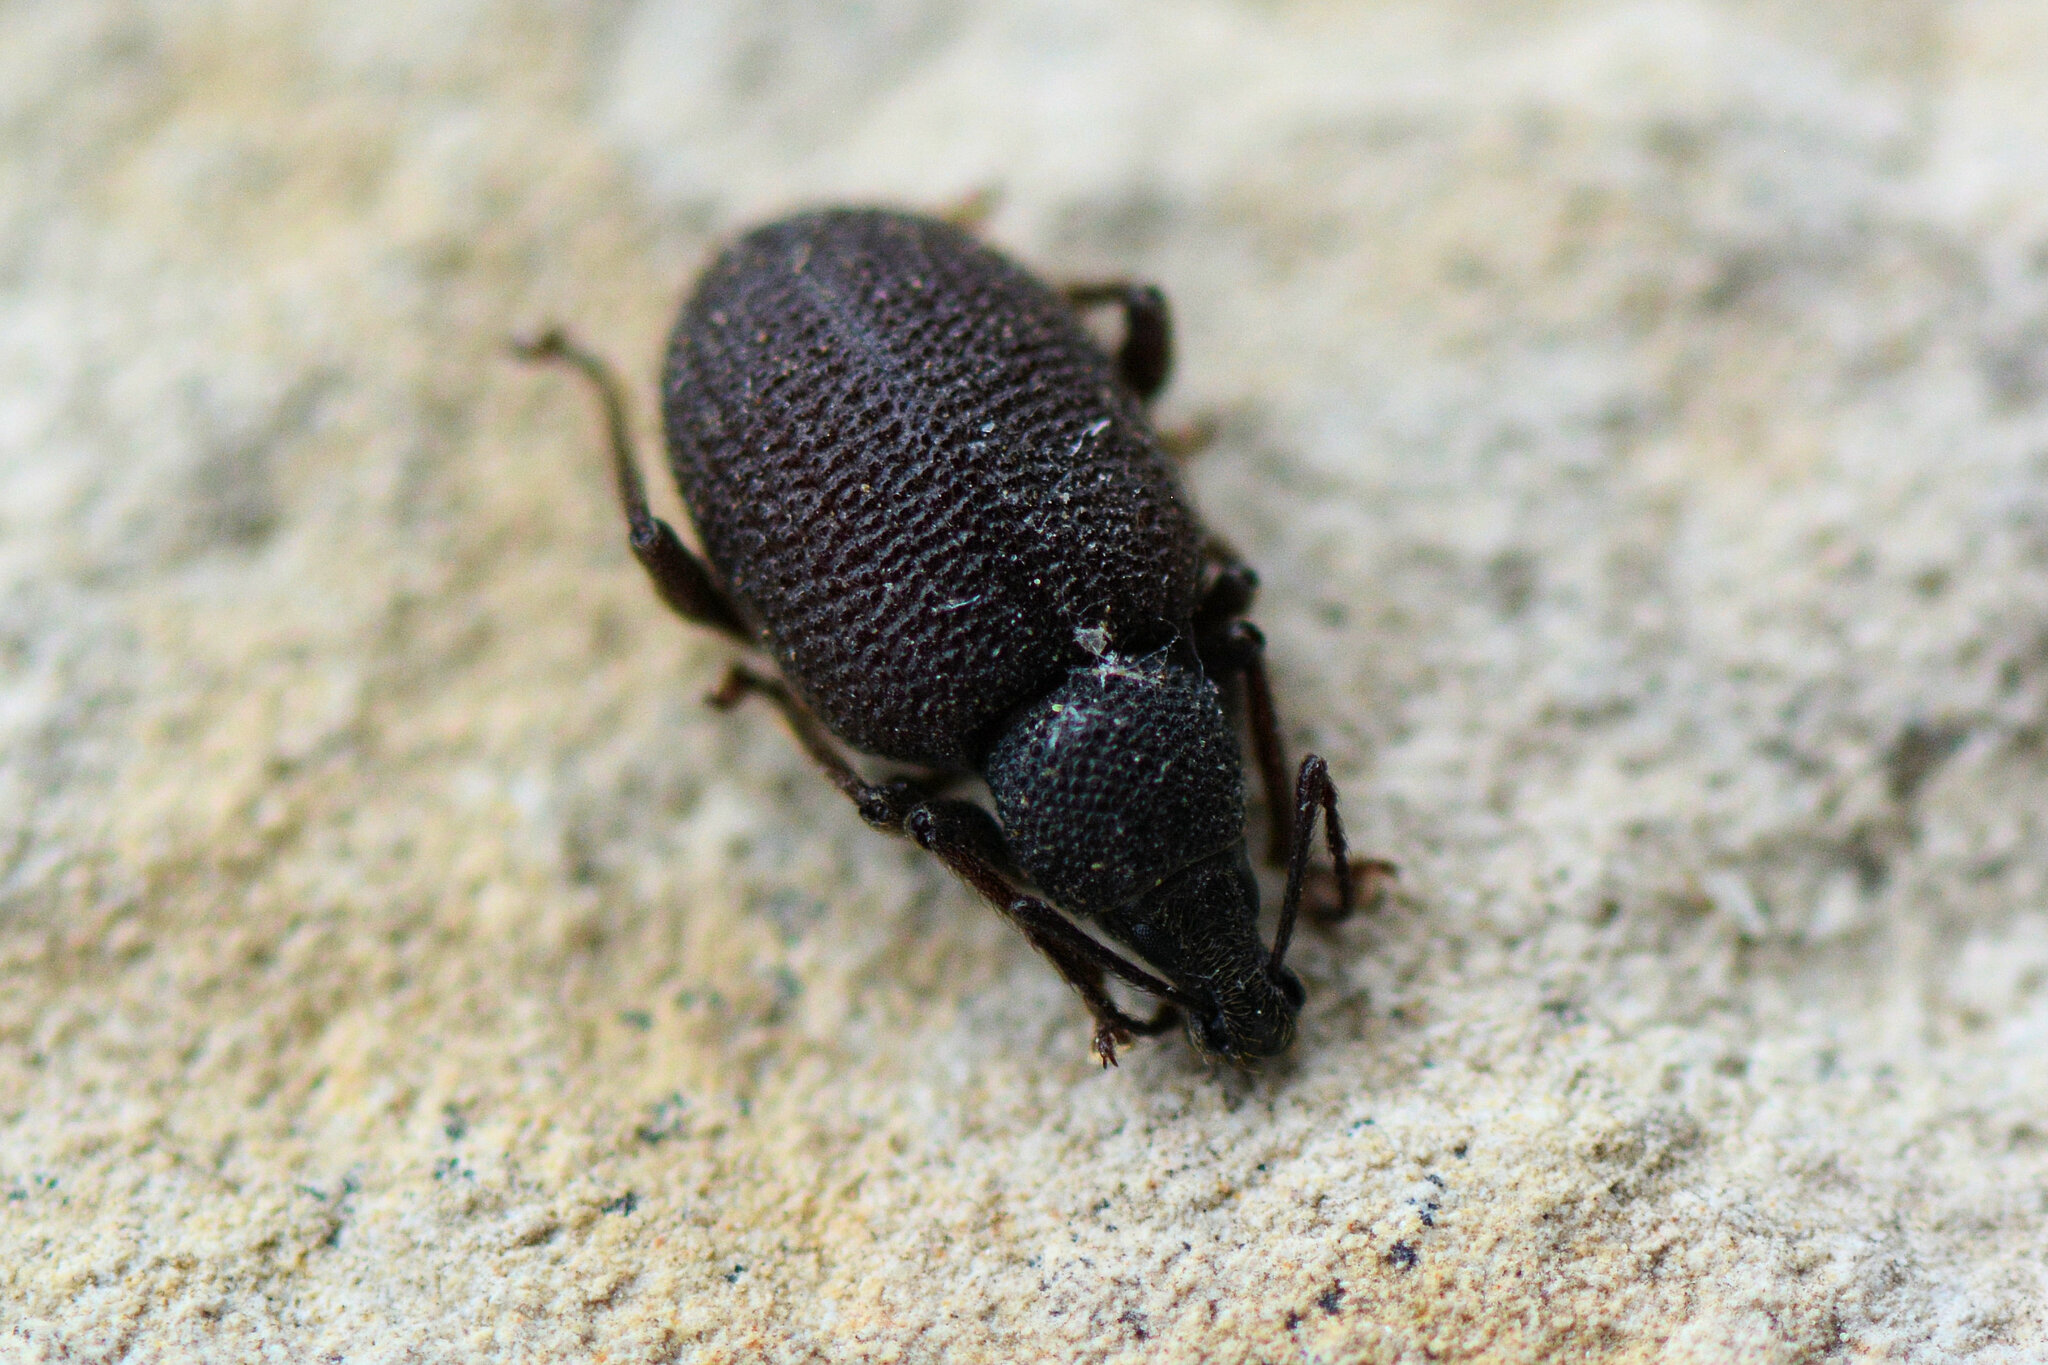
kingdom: Animalia
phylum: Arthropoda
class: Insecta
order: Coleoptera
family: Curculionidae
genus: Otiorhynchus
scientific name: Otiorhynchus rugosostriatus
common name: Weevil
